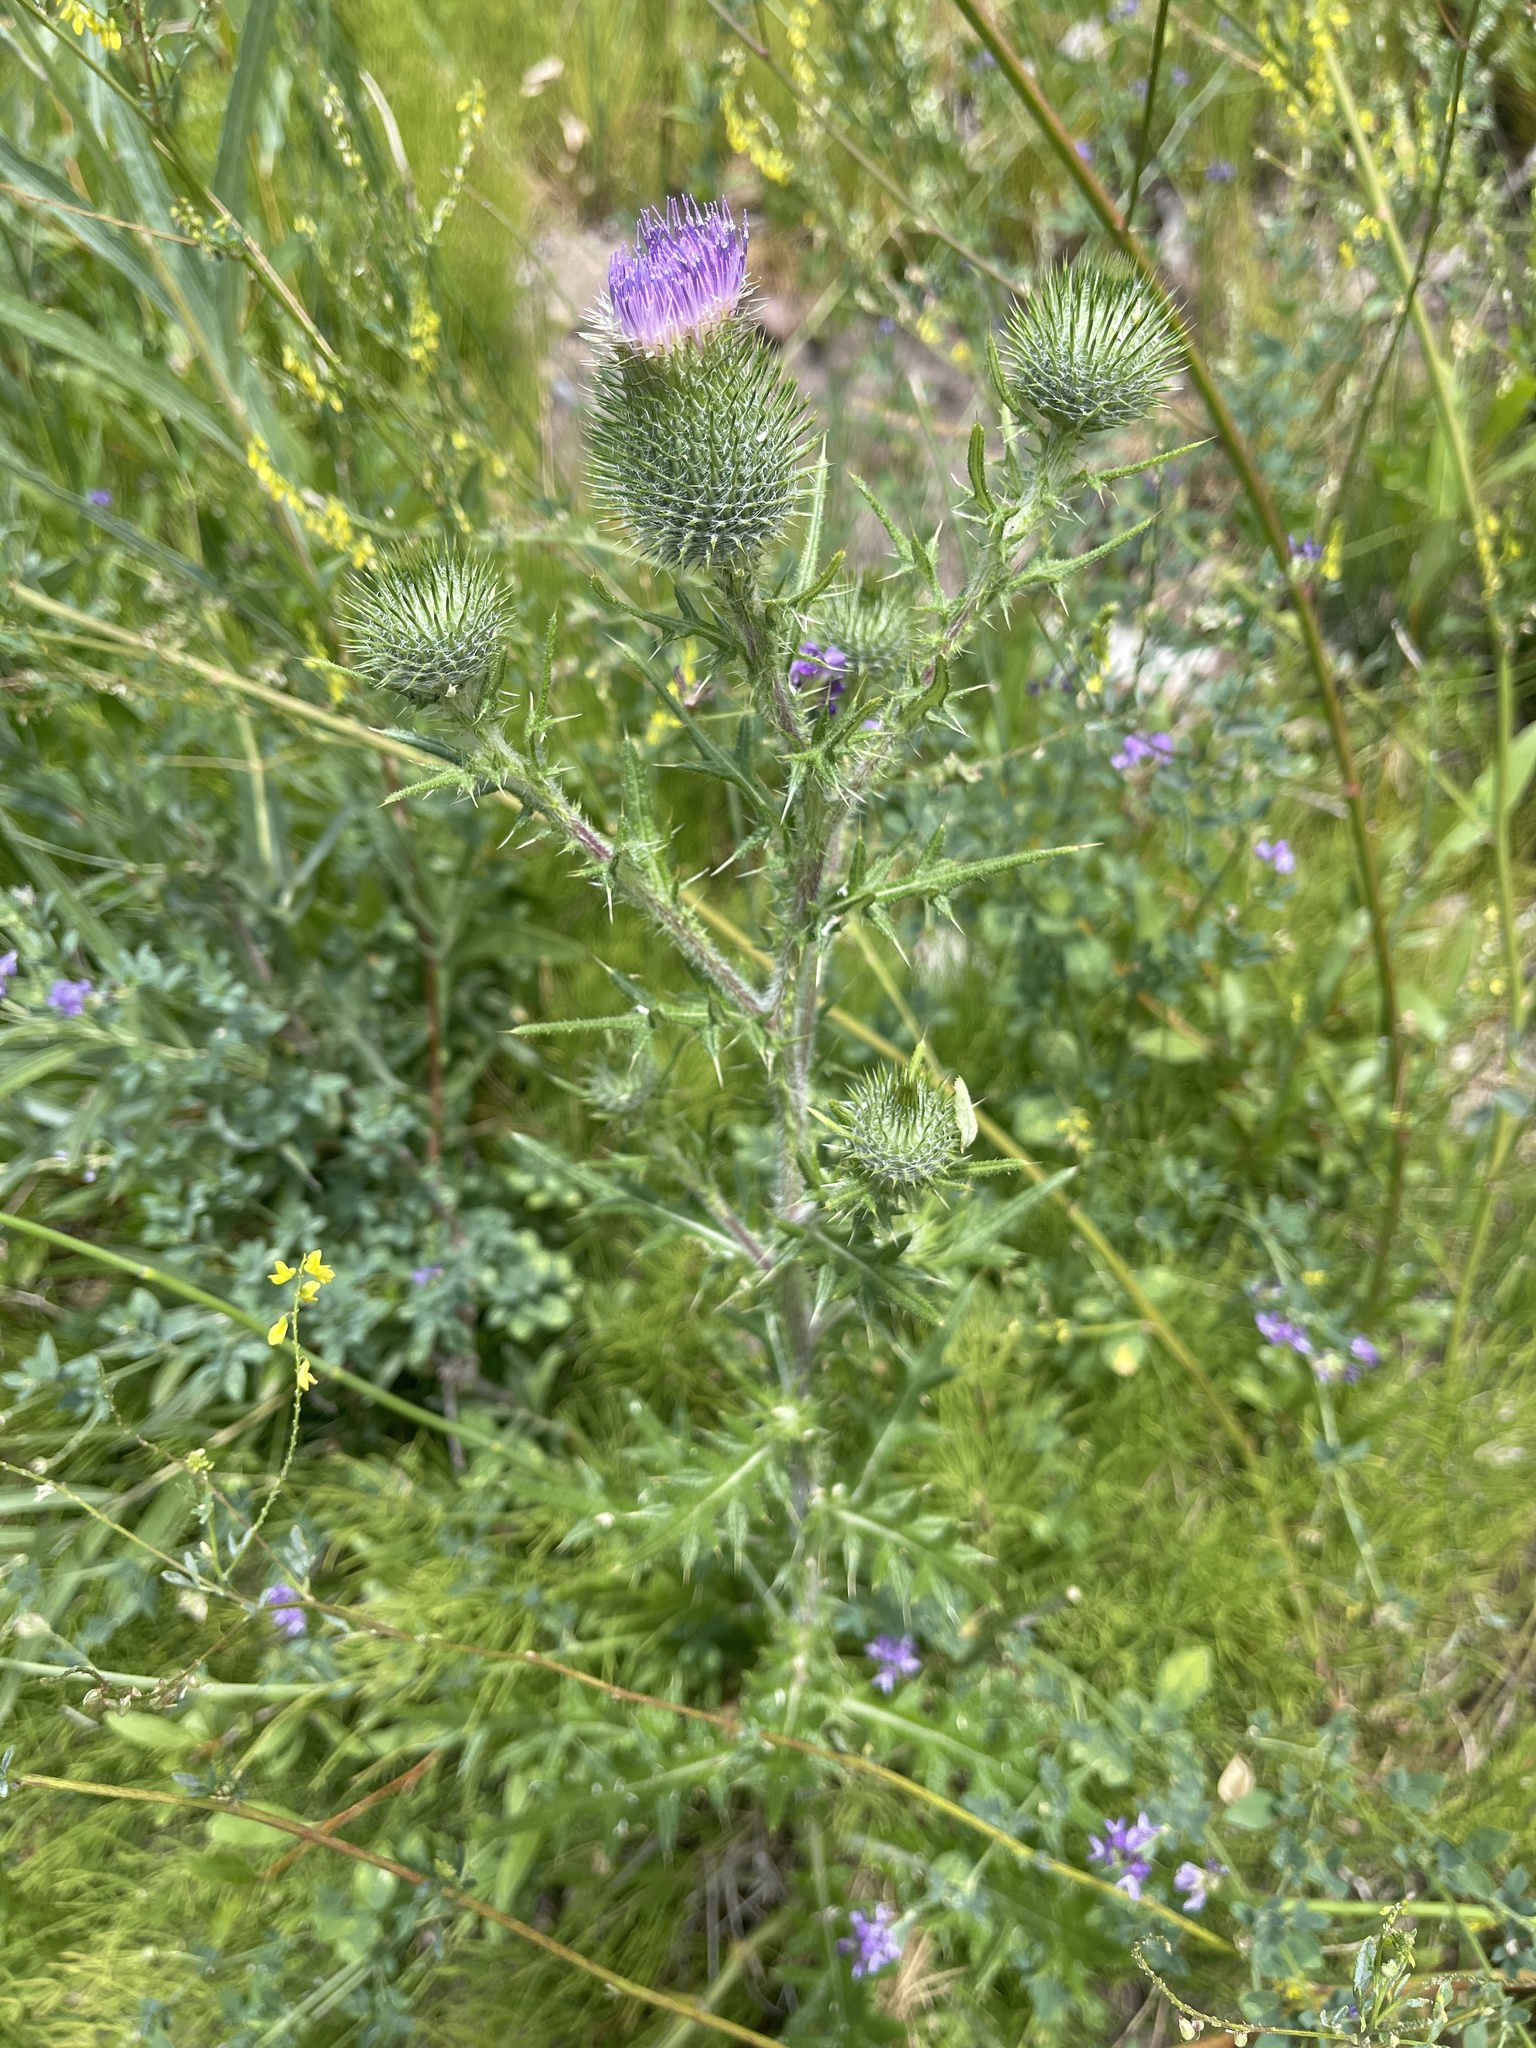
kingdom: Plantae
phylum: Tracheophyta
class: Magnoliopsida
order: Asterales
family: Asteraceae
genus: Cirsium
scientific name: Cirsium vulgare
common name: Bull thistle
